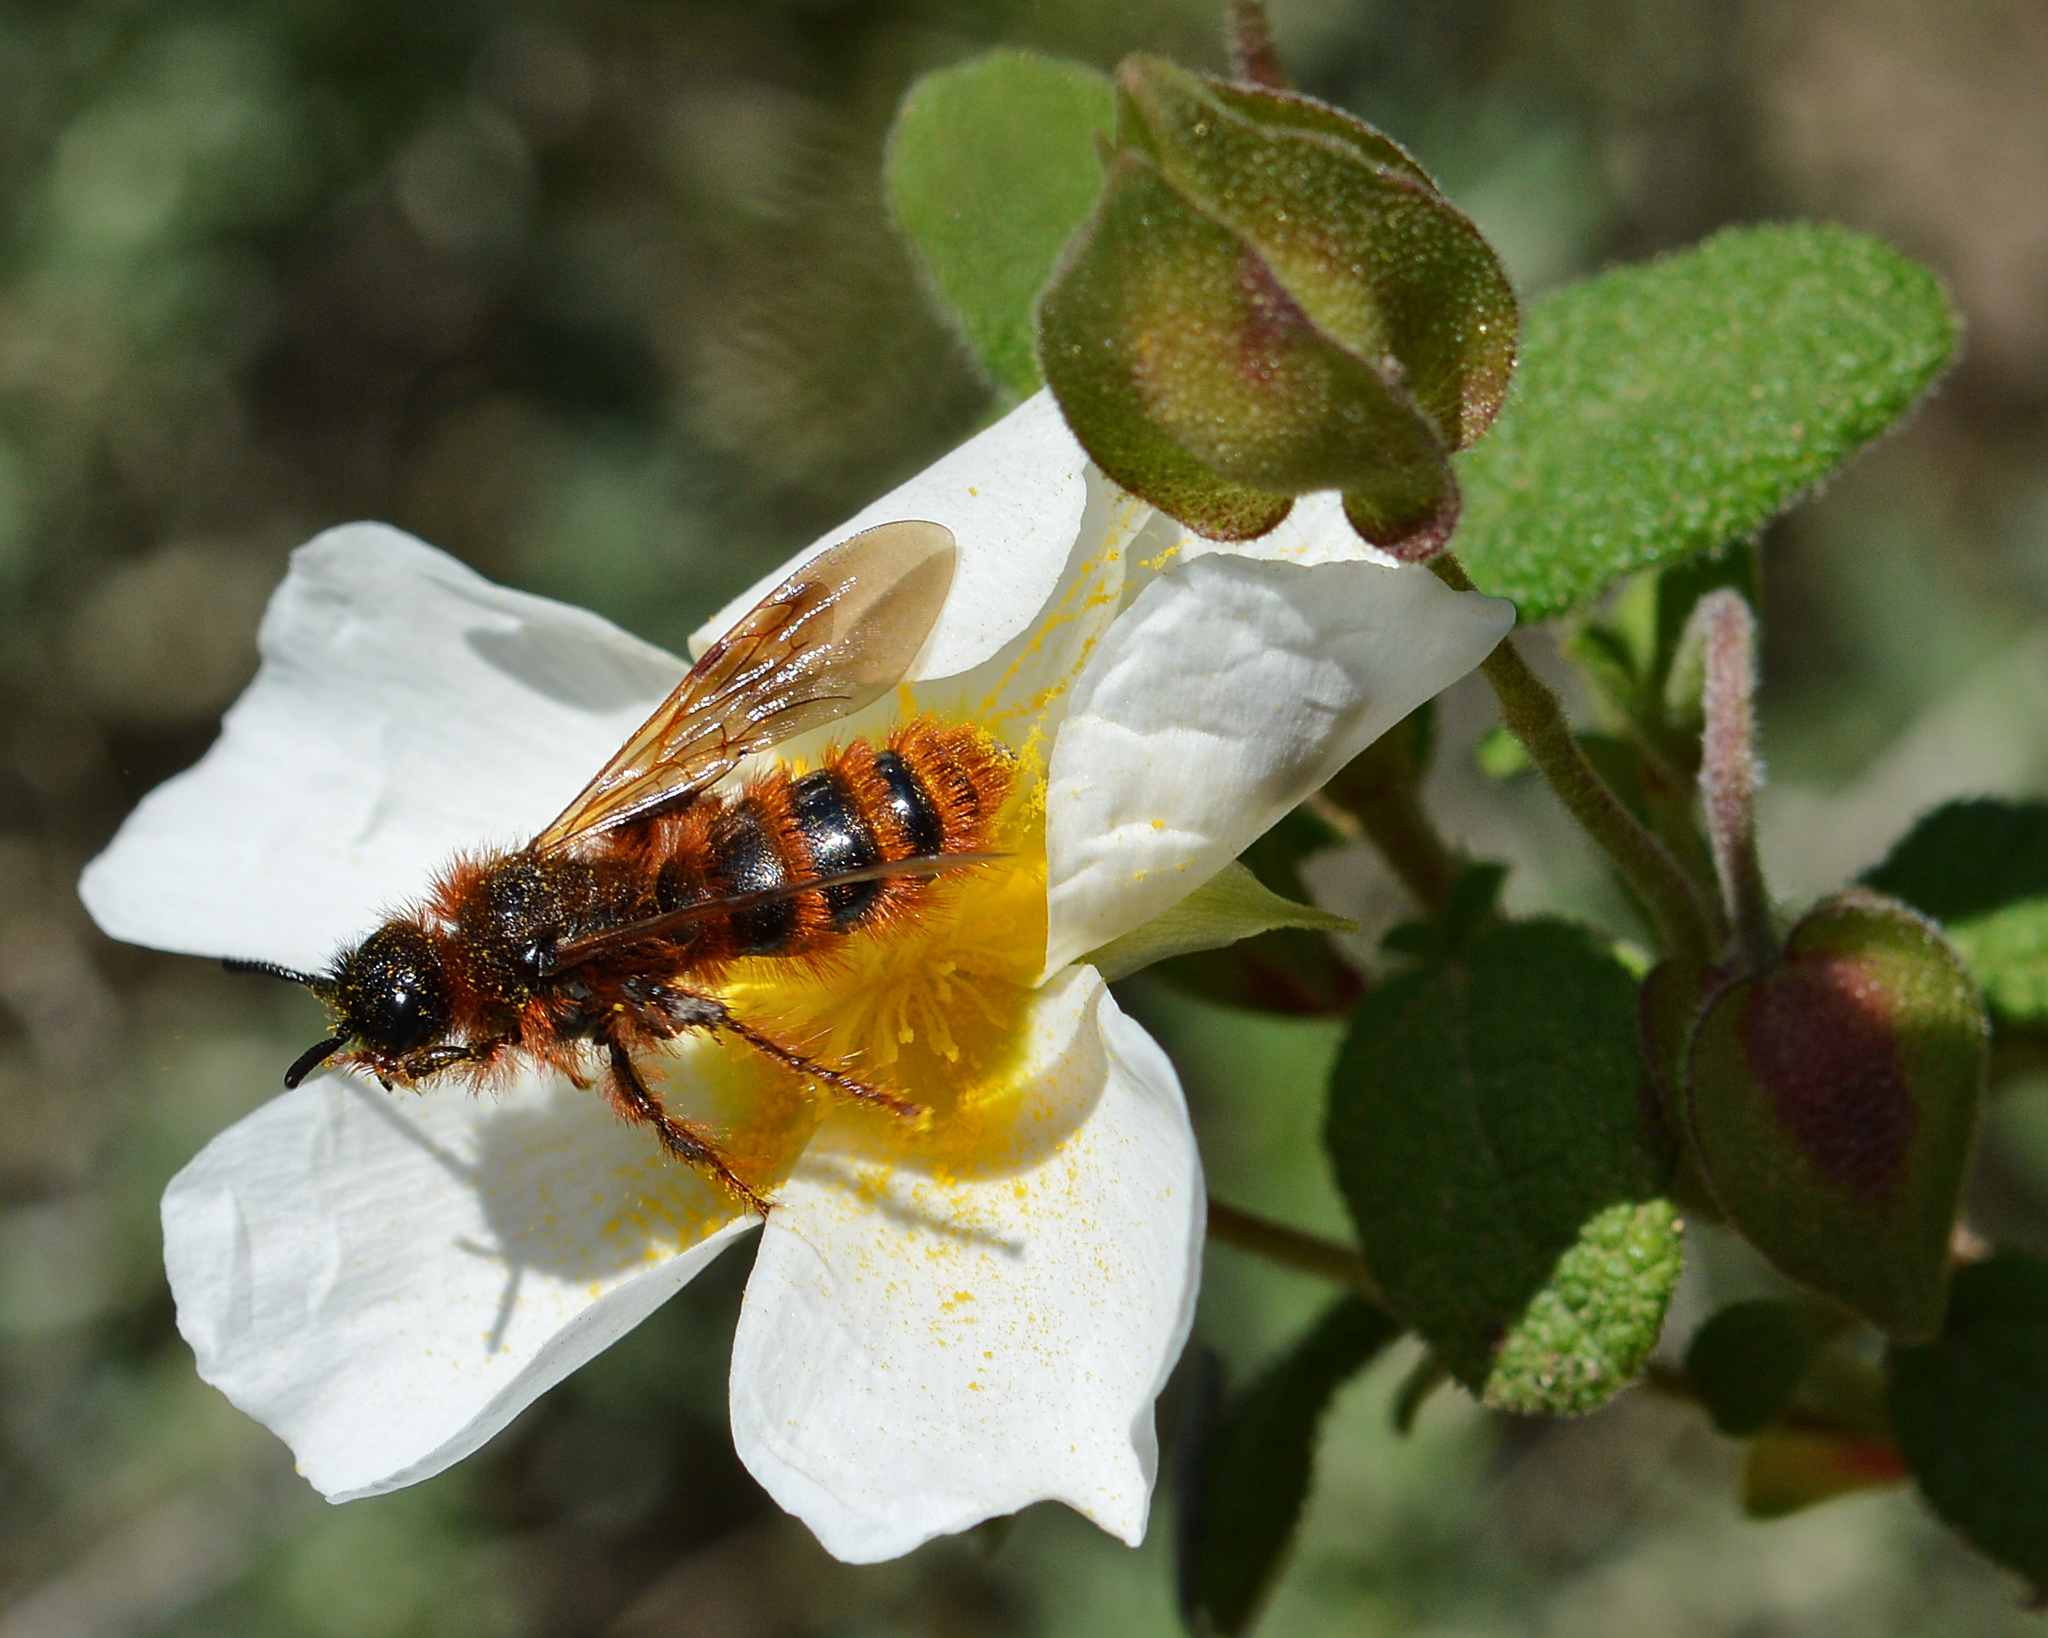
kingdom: Animalia
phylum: Arthropoda
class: Insecta
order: Hymenoptera
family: Scoliidae
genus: Dasyscolia
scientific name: Dasyscolia ciliata
